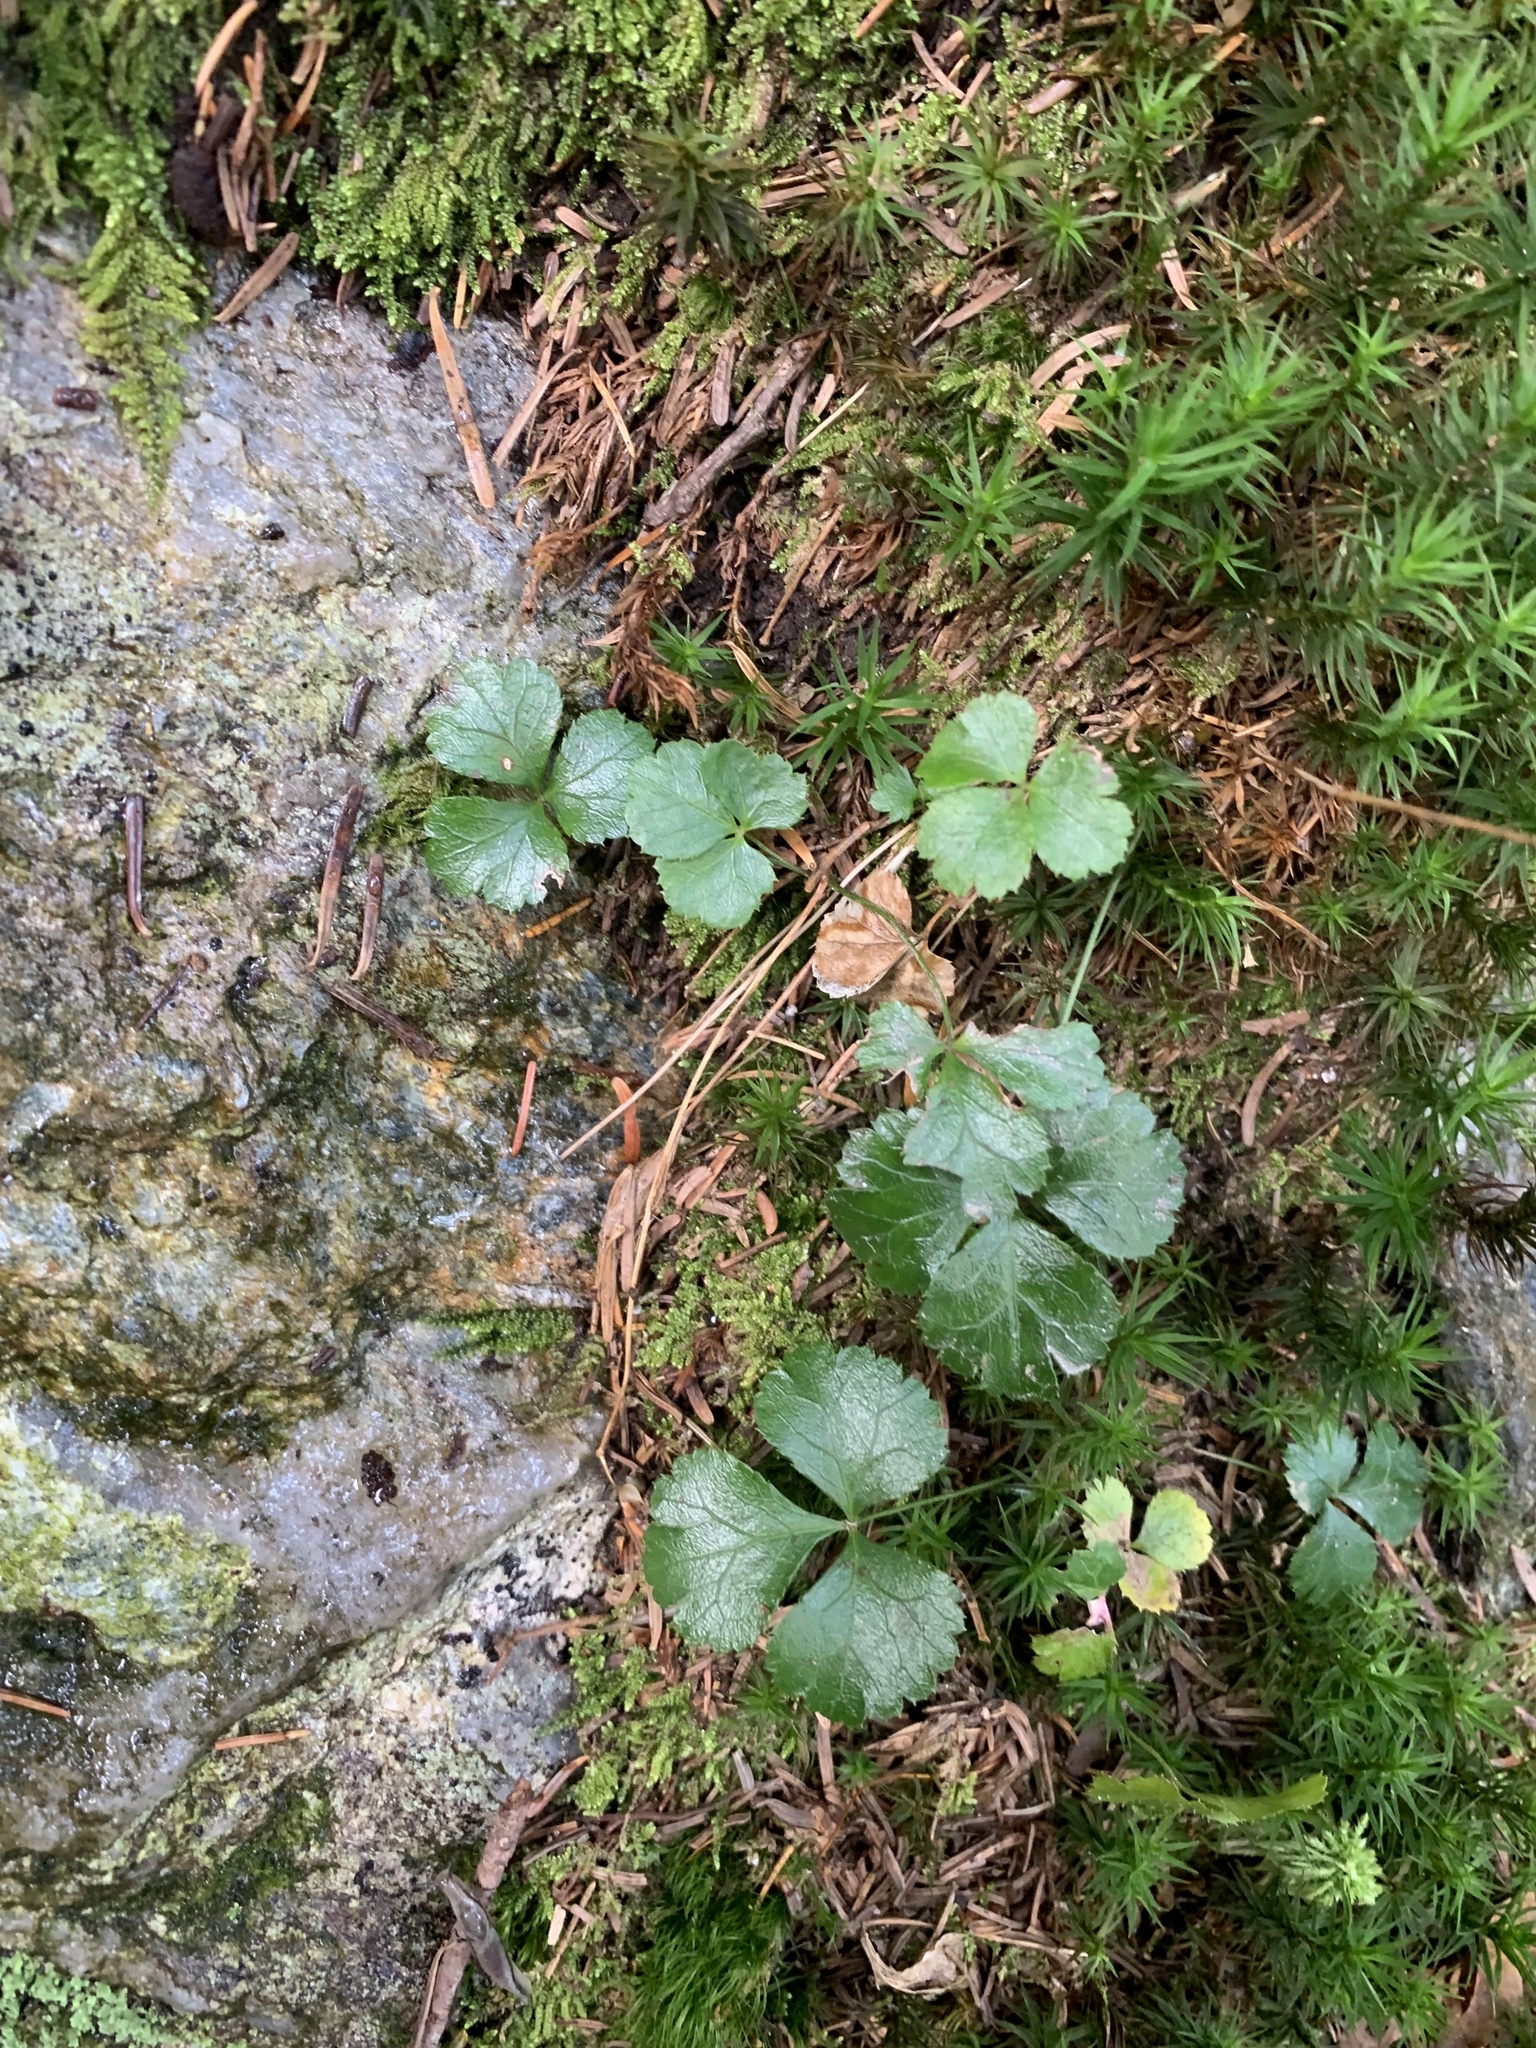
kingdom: Plantae
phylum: Tracheophyta
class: Magnoliopsida
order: Ranunculales
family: Ranunculaceae
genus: Coptis
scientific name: Coptis trifolia
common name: Canker-root
